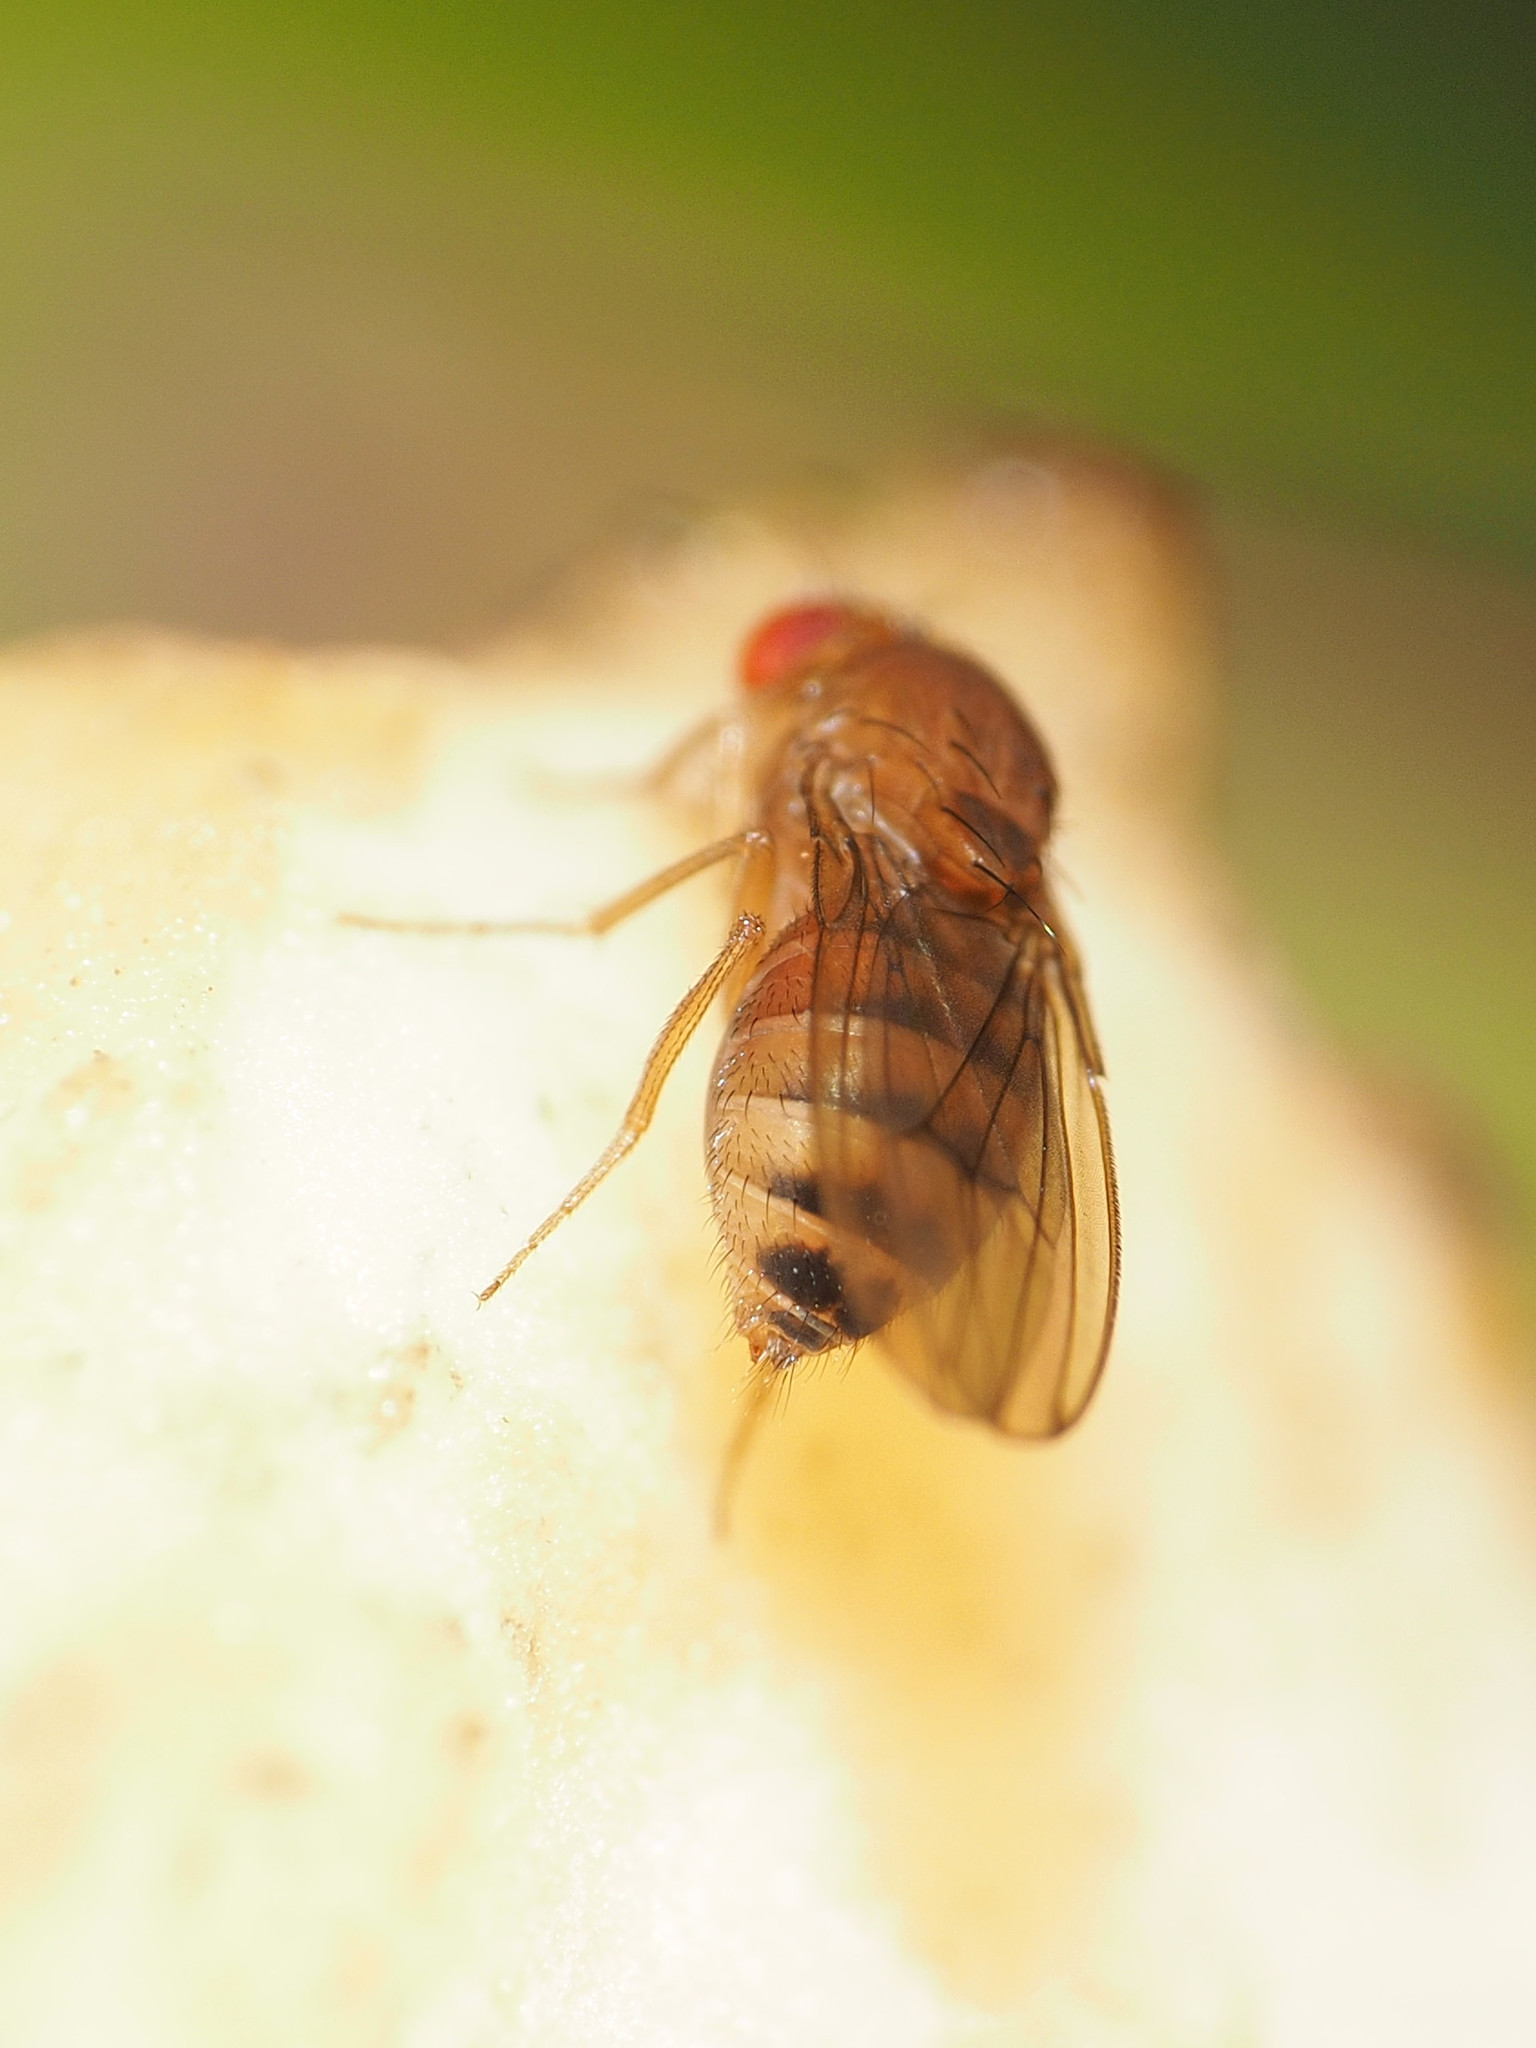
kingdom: Animalia
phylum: Arthropoda
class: Insecta
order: Diptera
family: Drosophilidae
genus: Drosophila
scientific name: Drosophila immigrans
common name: Pomace fly
